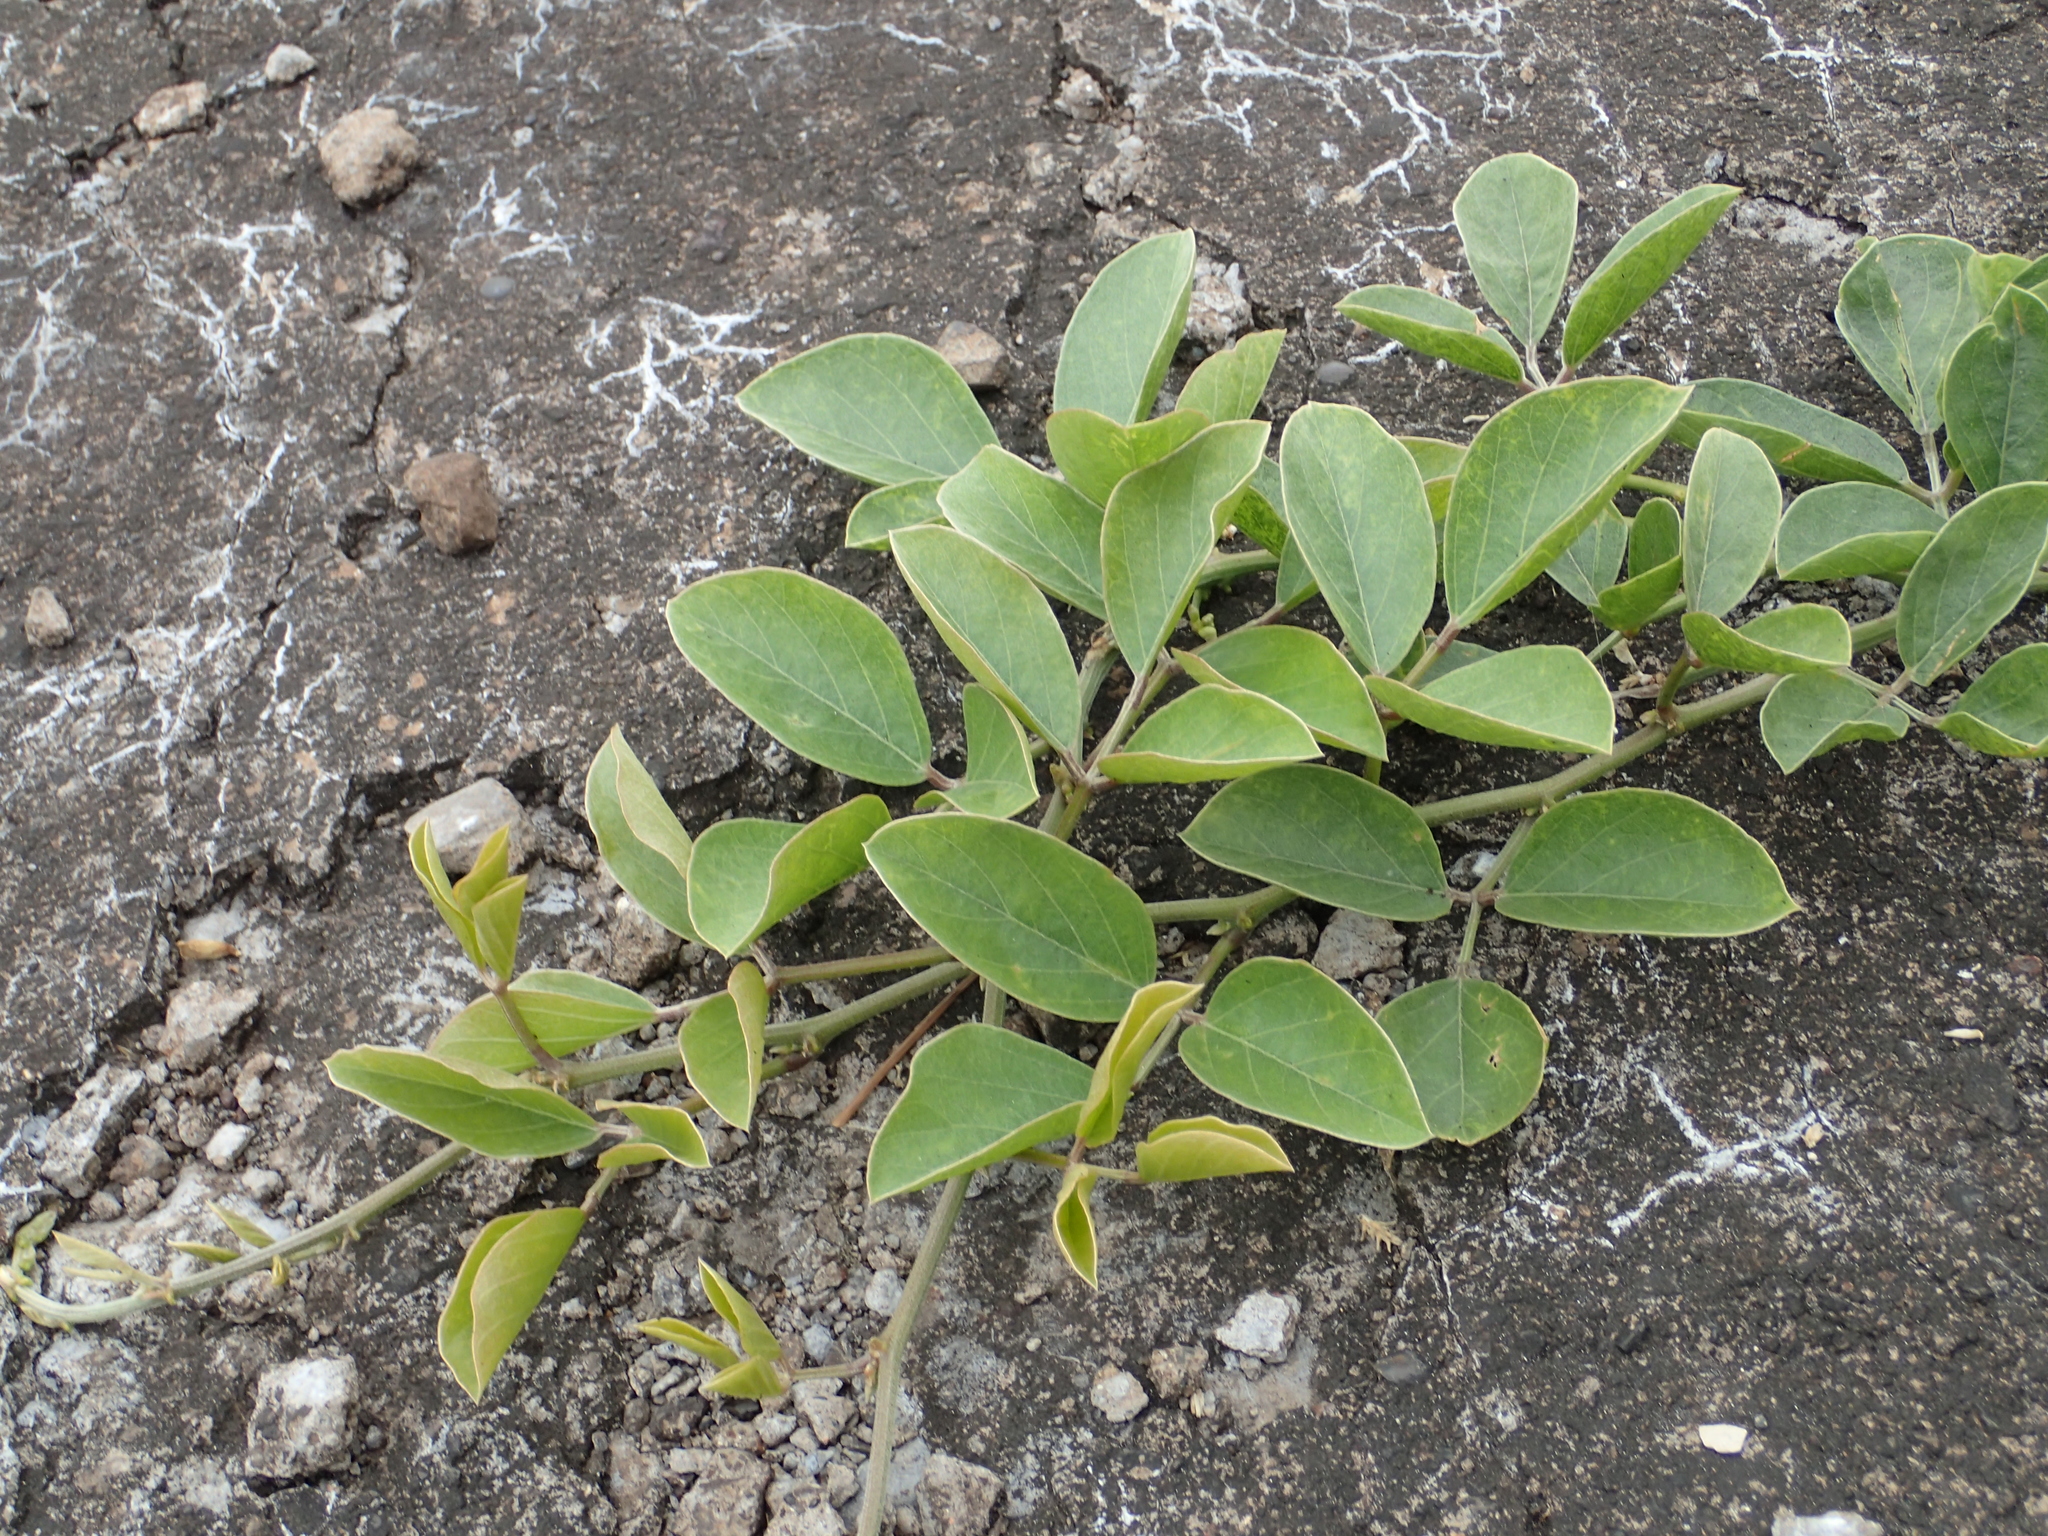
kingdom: Plantae
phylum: Tracheophyta
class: Magnoliopsida
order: Fabales
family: Fabaceae
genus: Canavalia
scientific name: Canavalia rosea
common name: Beach-bean
